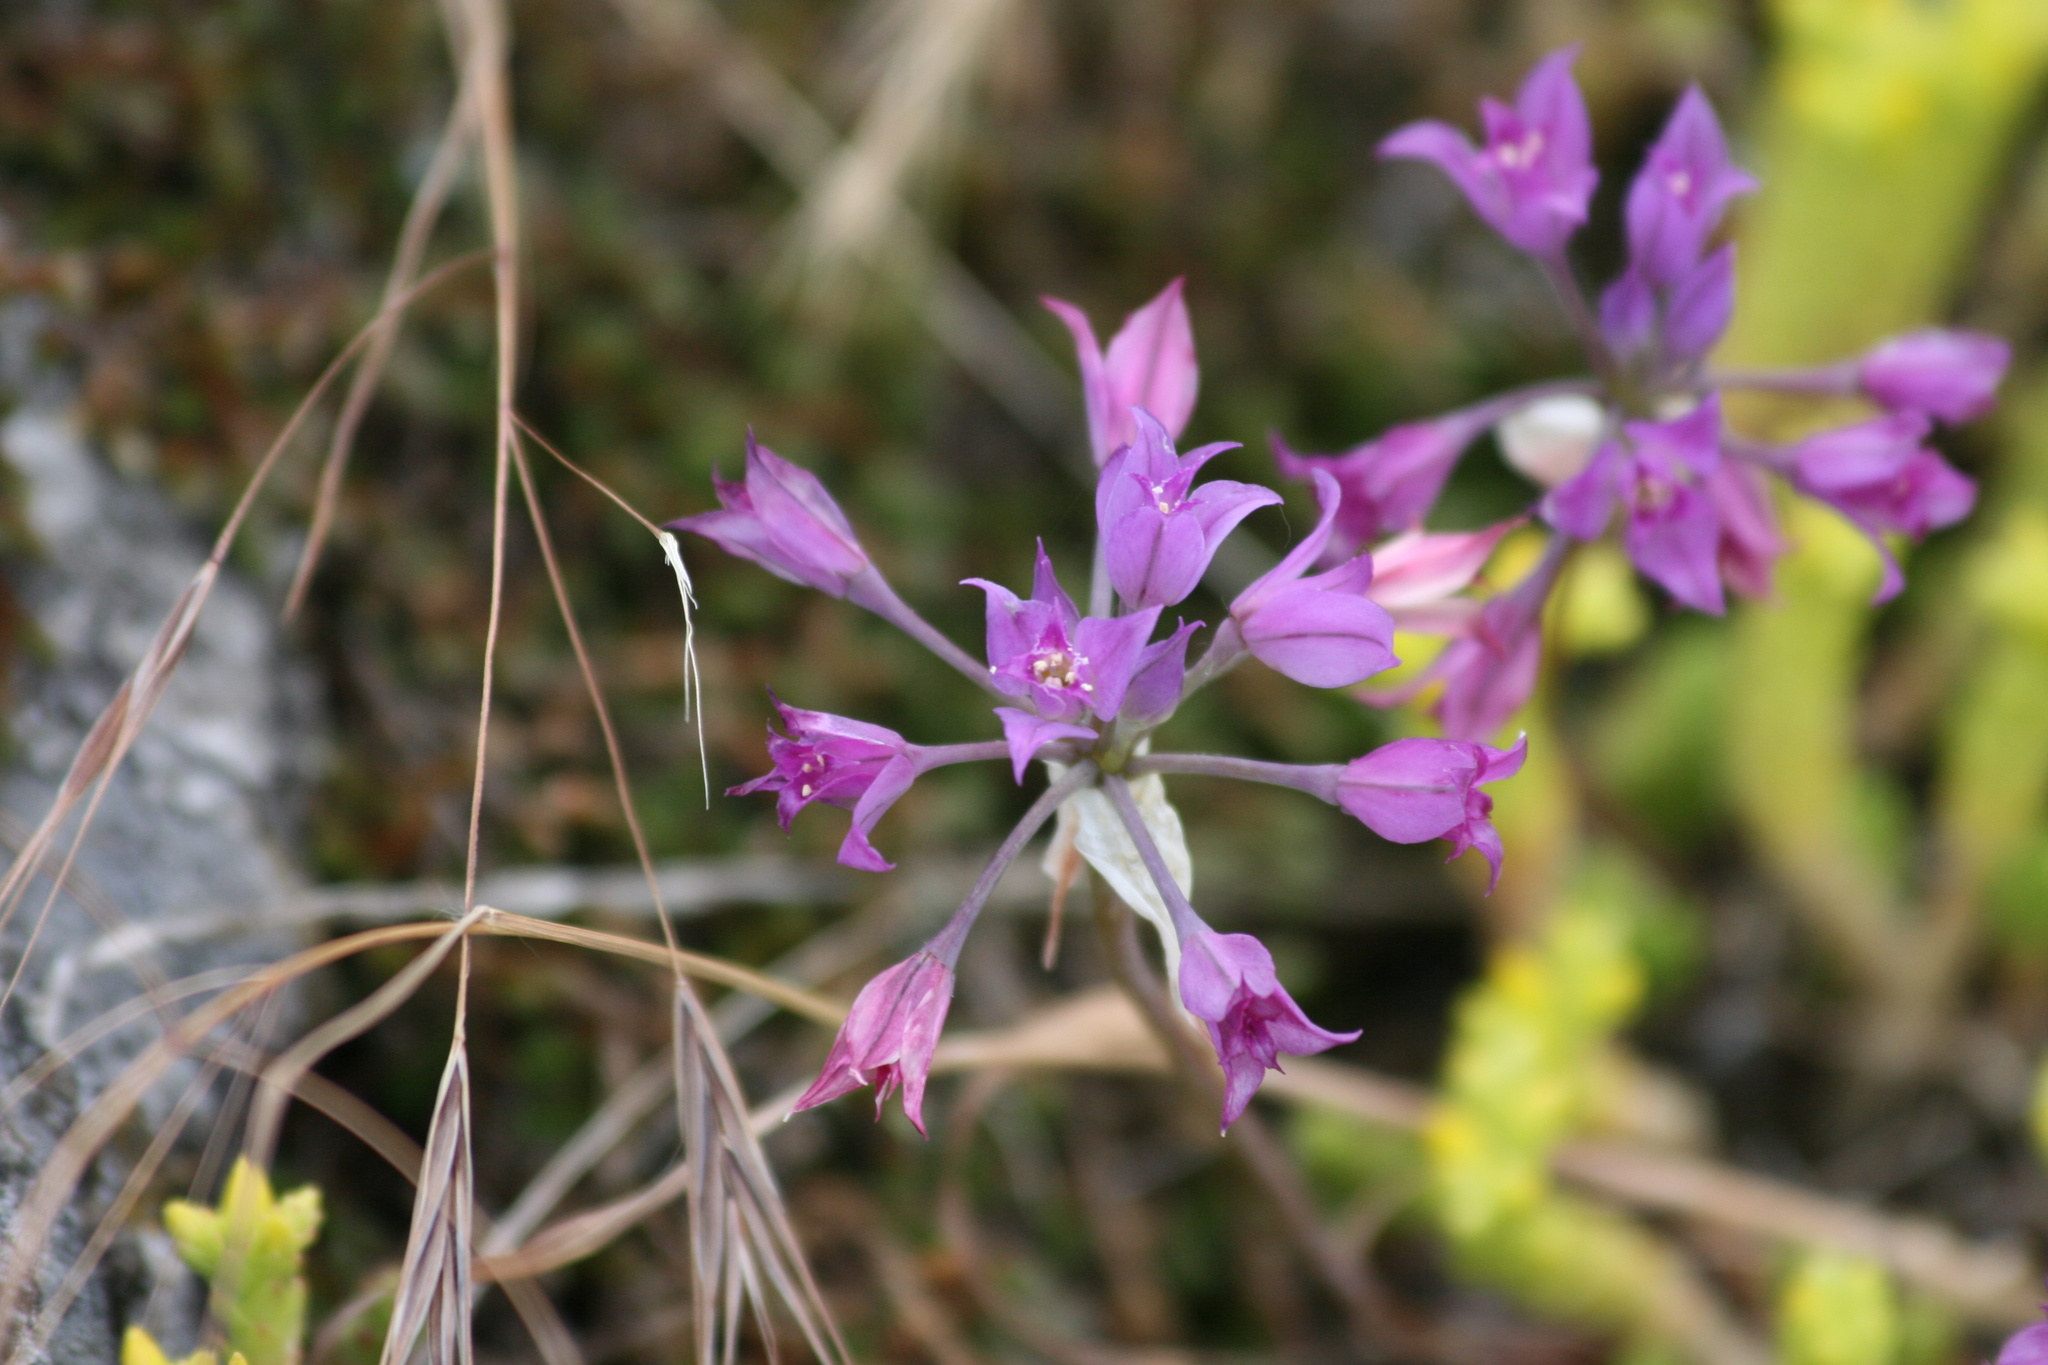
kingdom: Plantae
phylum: Tracheophyta
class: Liliopsida
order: Asparagales
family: Amaryllidaceae
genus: Allium
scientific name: Allium acuminatum
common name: Hooker's onion
